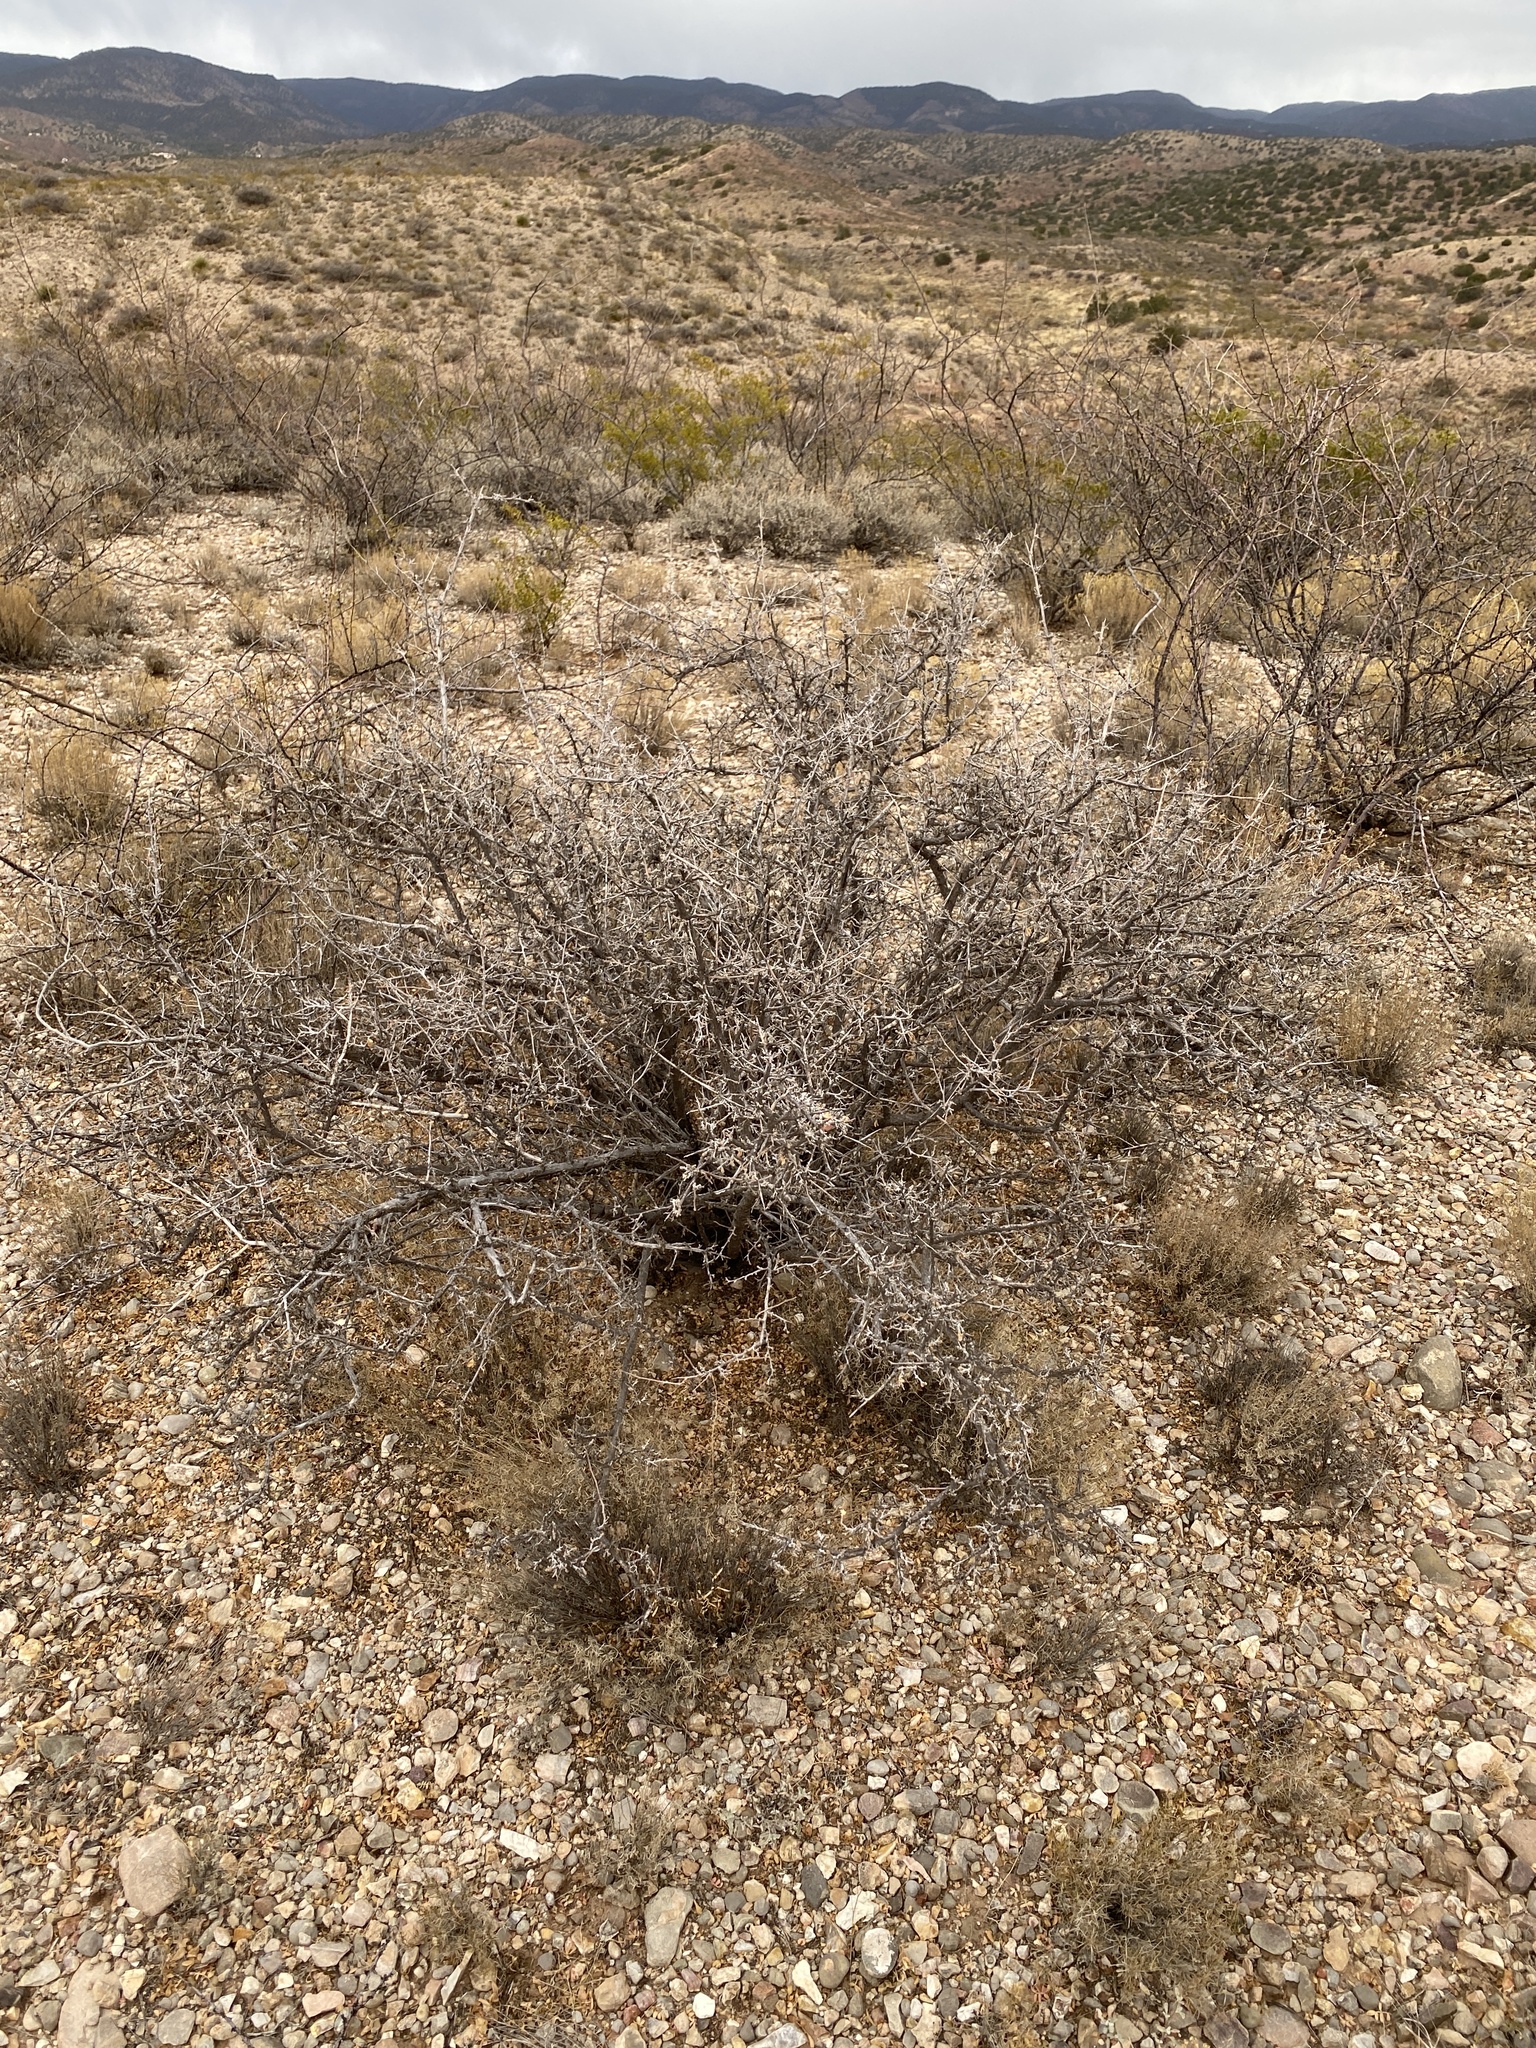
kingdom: Plantae
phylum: Tracheophyta
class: Magnoliopsida
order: Sapindales
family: Anacardiaceae
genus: Rhus
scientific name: Rhus microphylla
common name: Desert sumac
